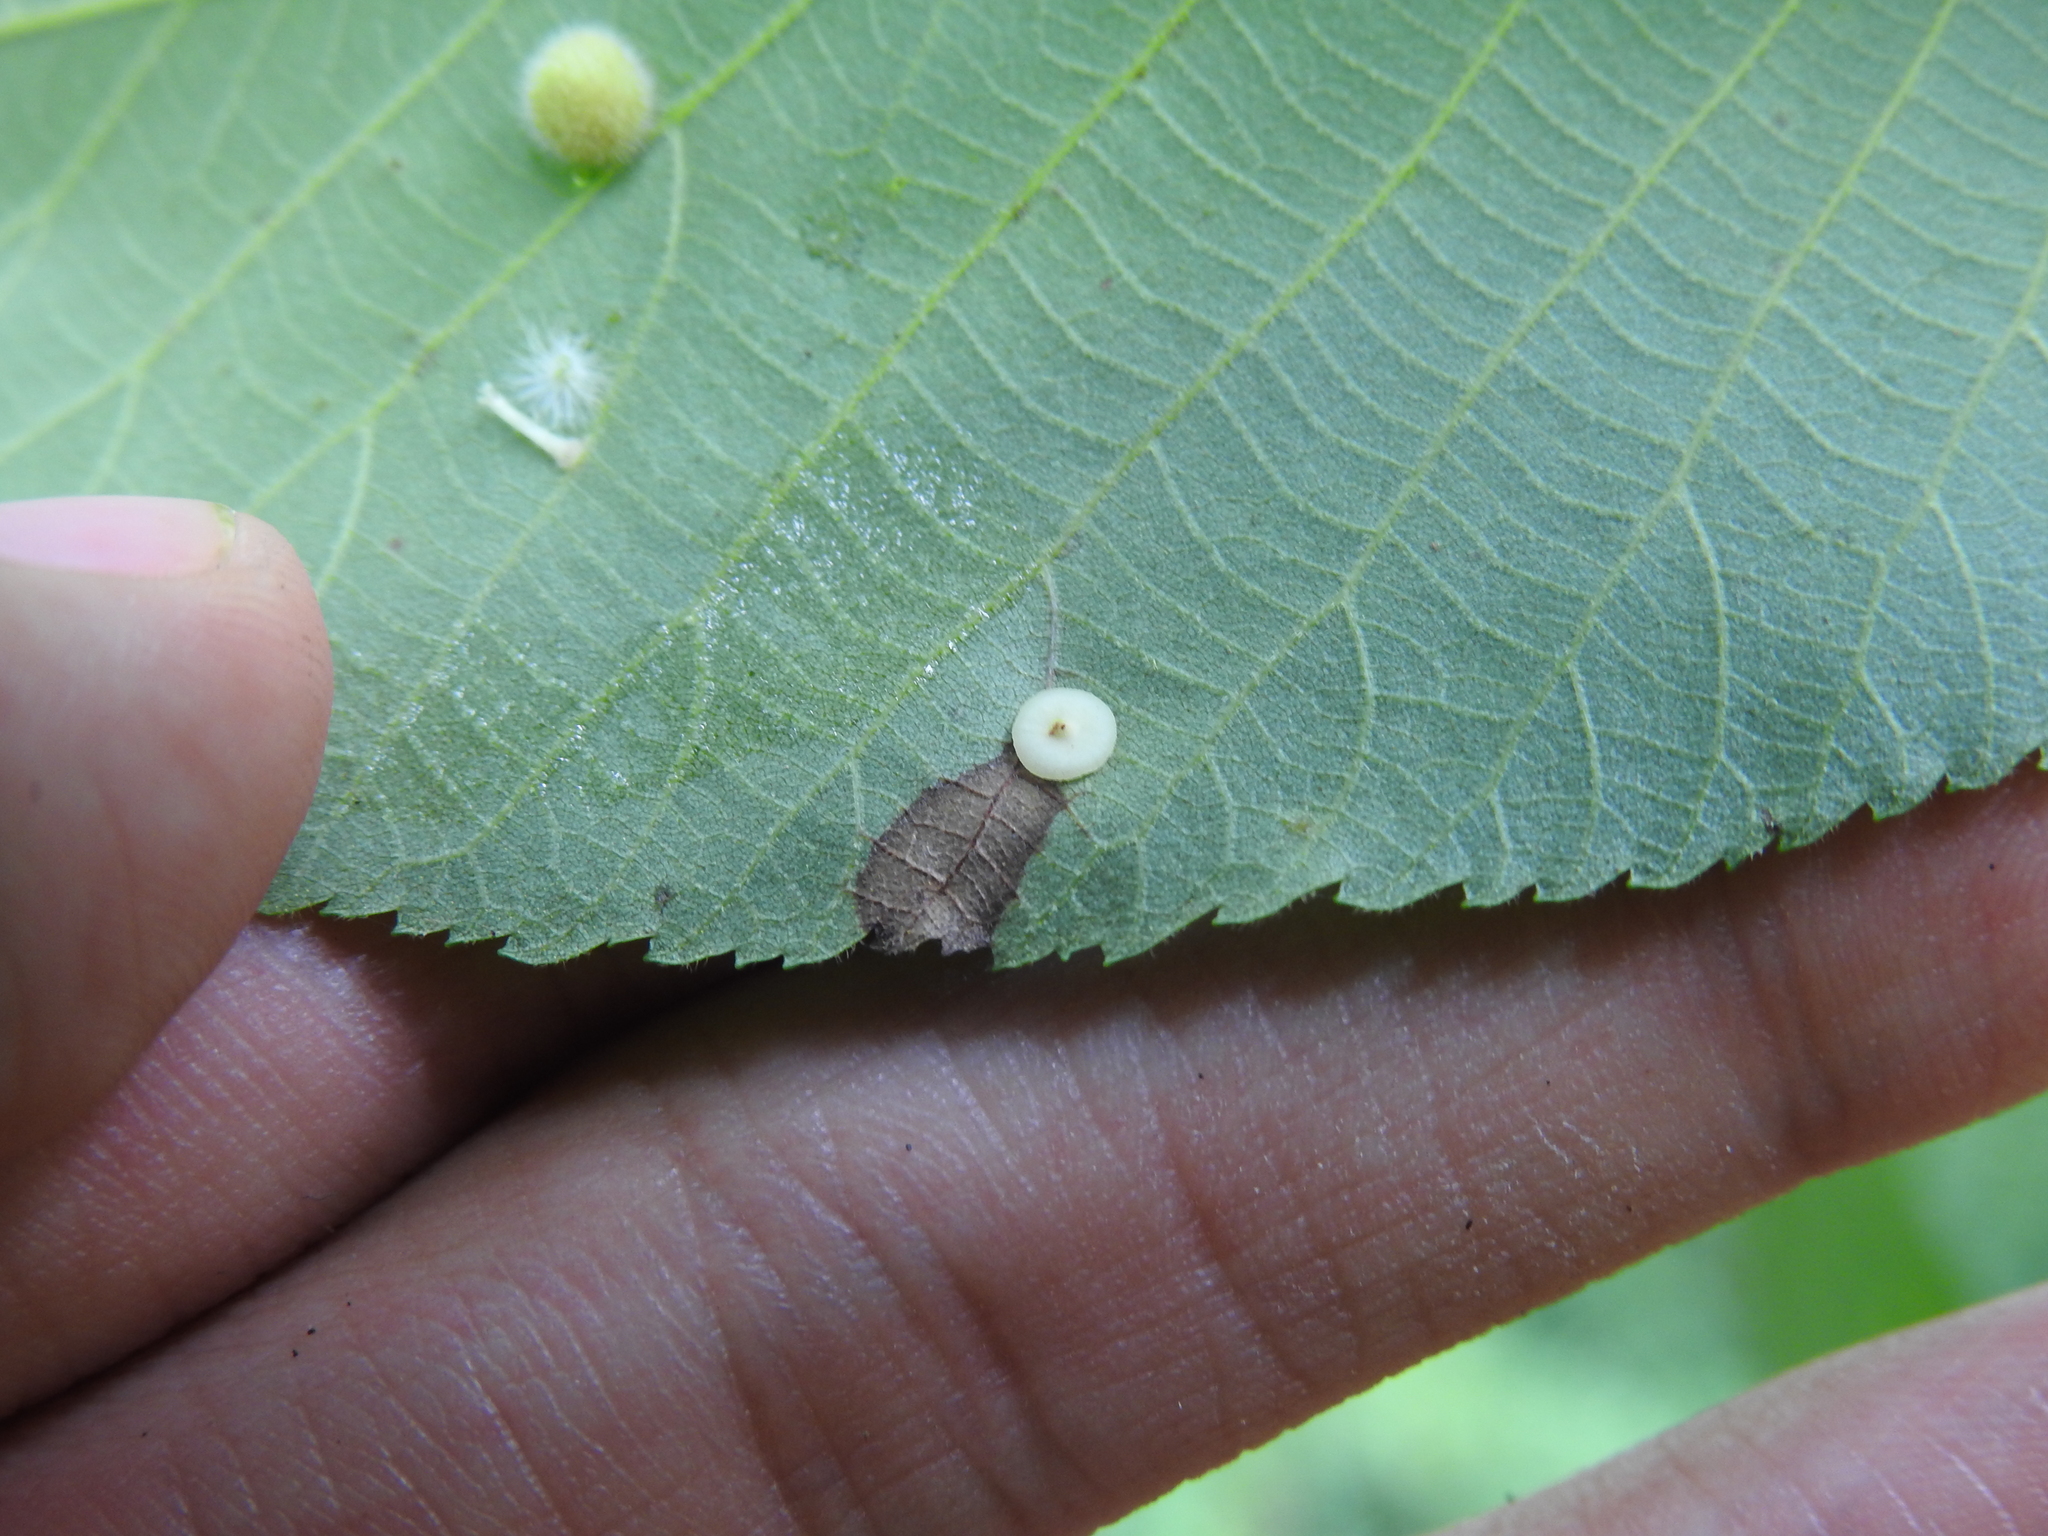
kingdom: Animalia
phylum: Arthropoda
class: Insecta
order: Diptera
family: Cecidomyiidae
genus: Caryomyia
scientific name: Caryomyia biretta
